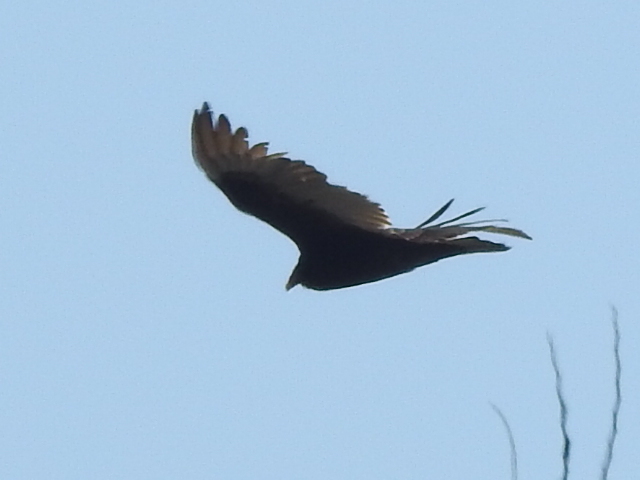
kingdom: Animalia
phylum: Chordata
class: Aves
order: Accipitriformes
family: Cathartidae
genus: Cathartes
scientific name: Cathartes aura
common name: Turkey vulture
